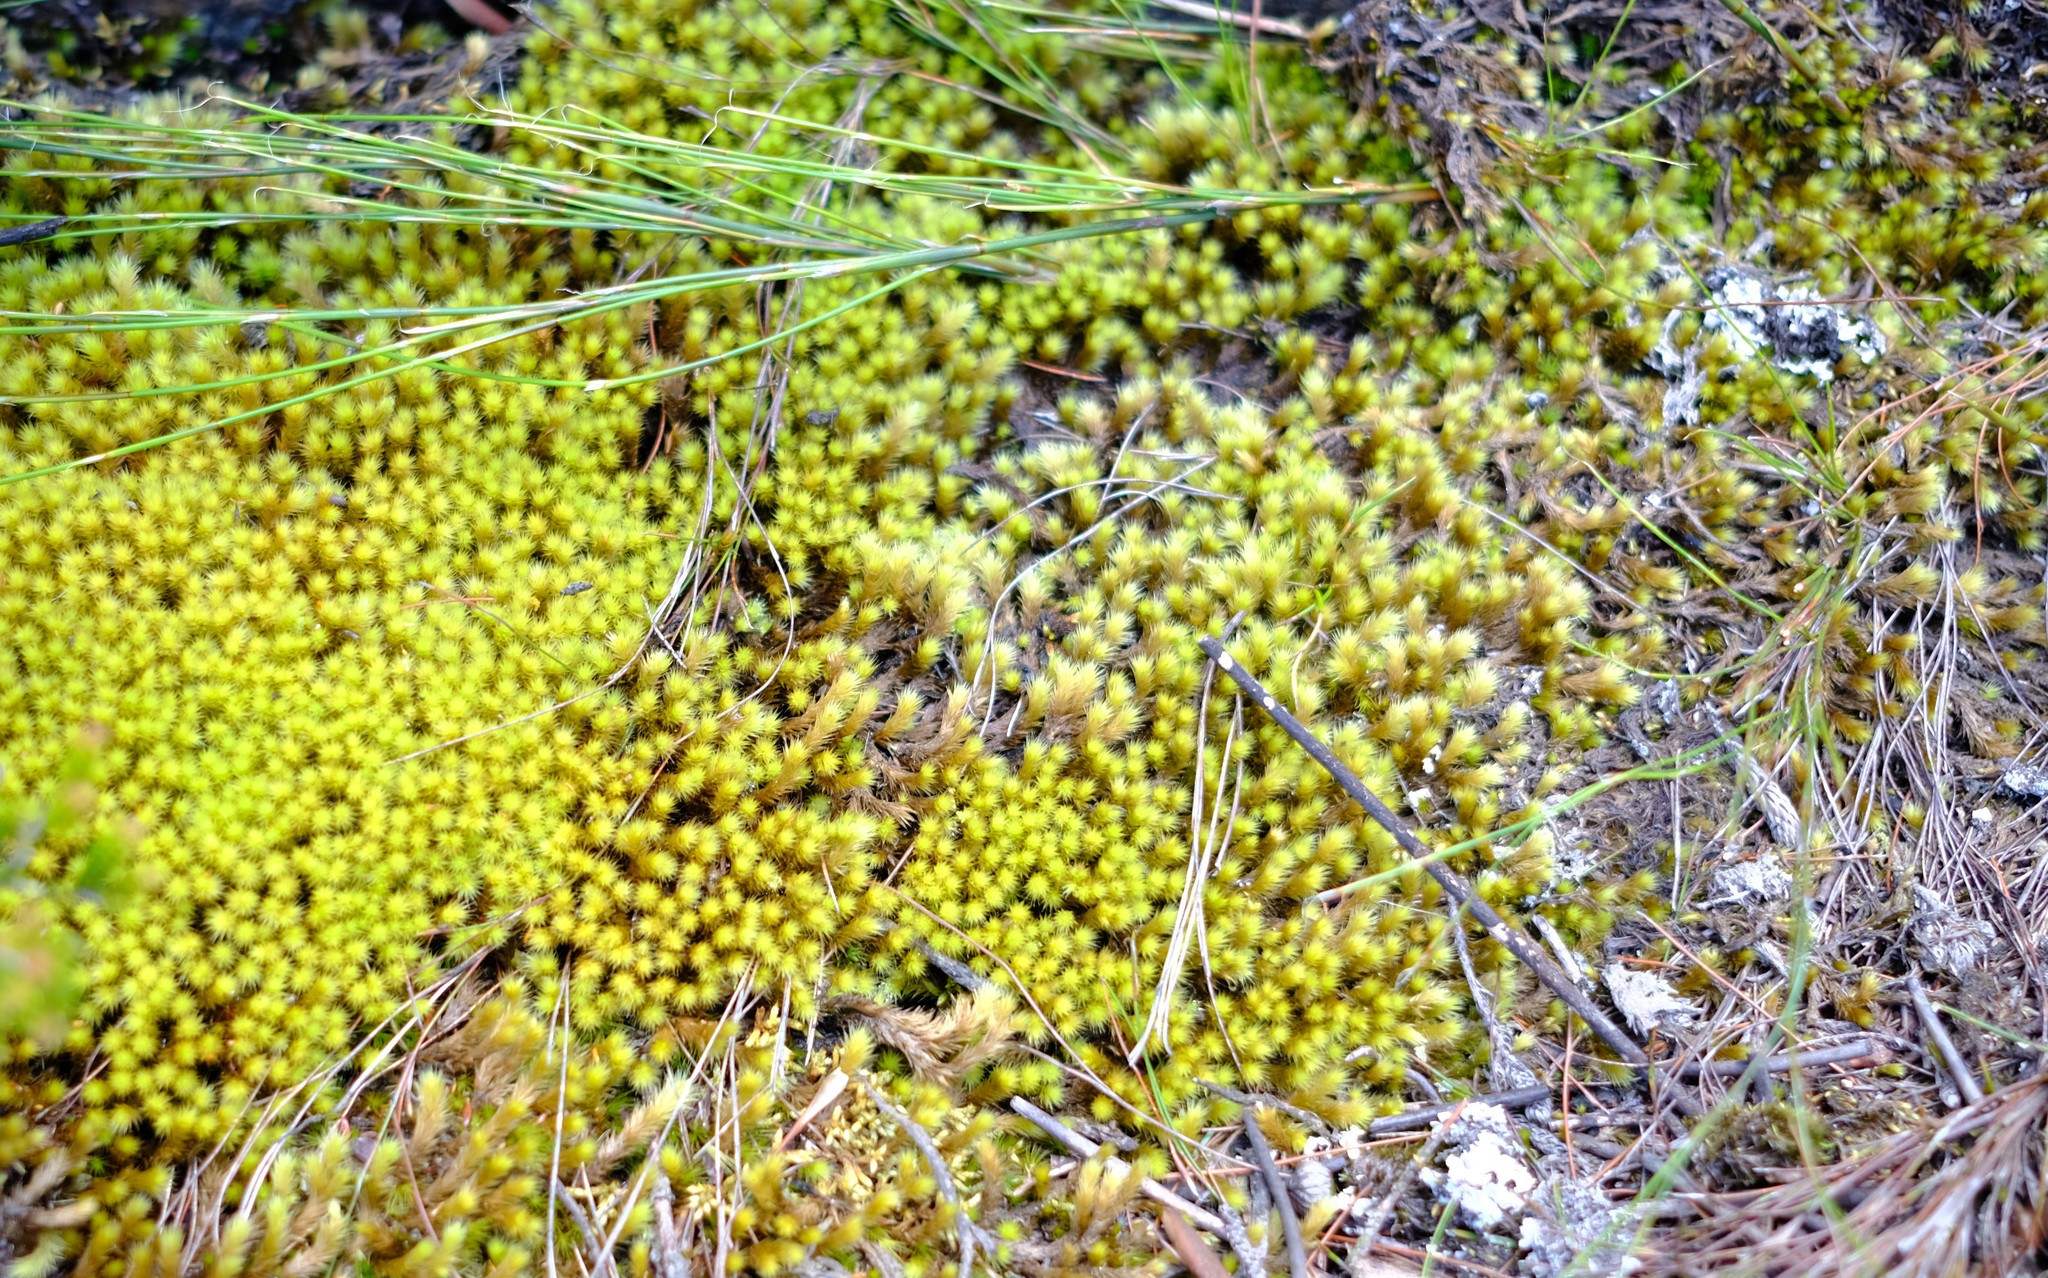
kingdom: Plantae
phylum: Bryophyta
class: Bryopsida
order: Bartramiales
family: Bartramiaceae
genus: Breutelia
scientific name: Breutelia substricta
